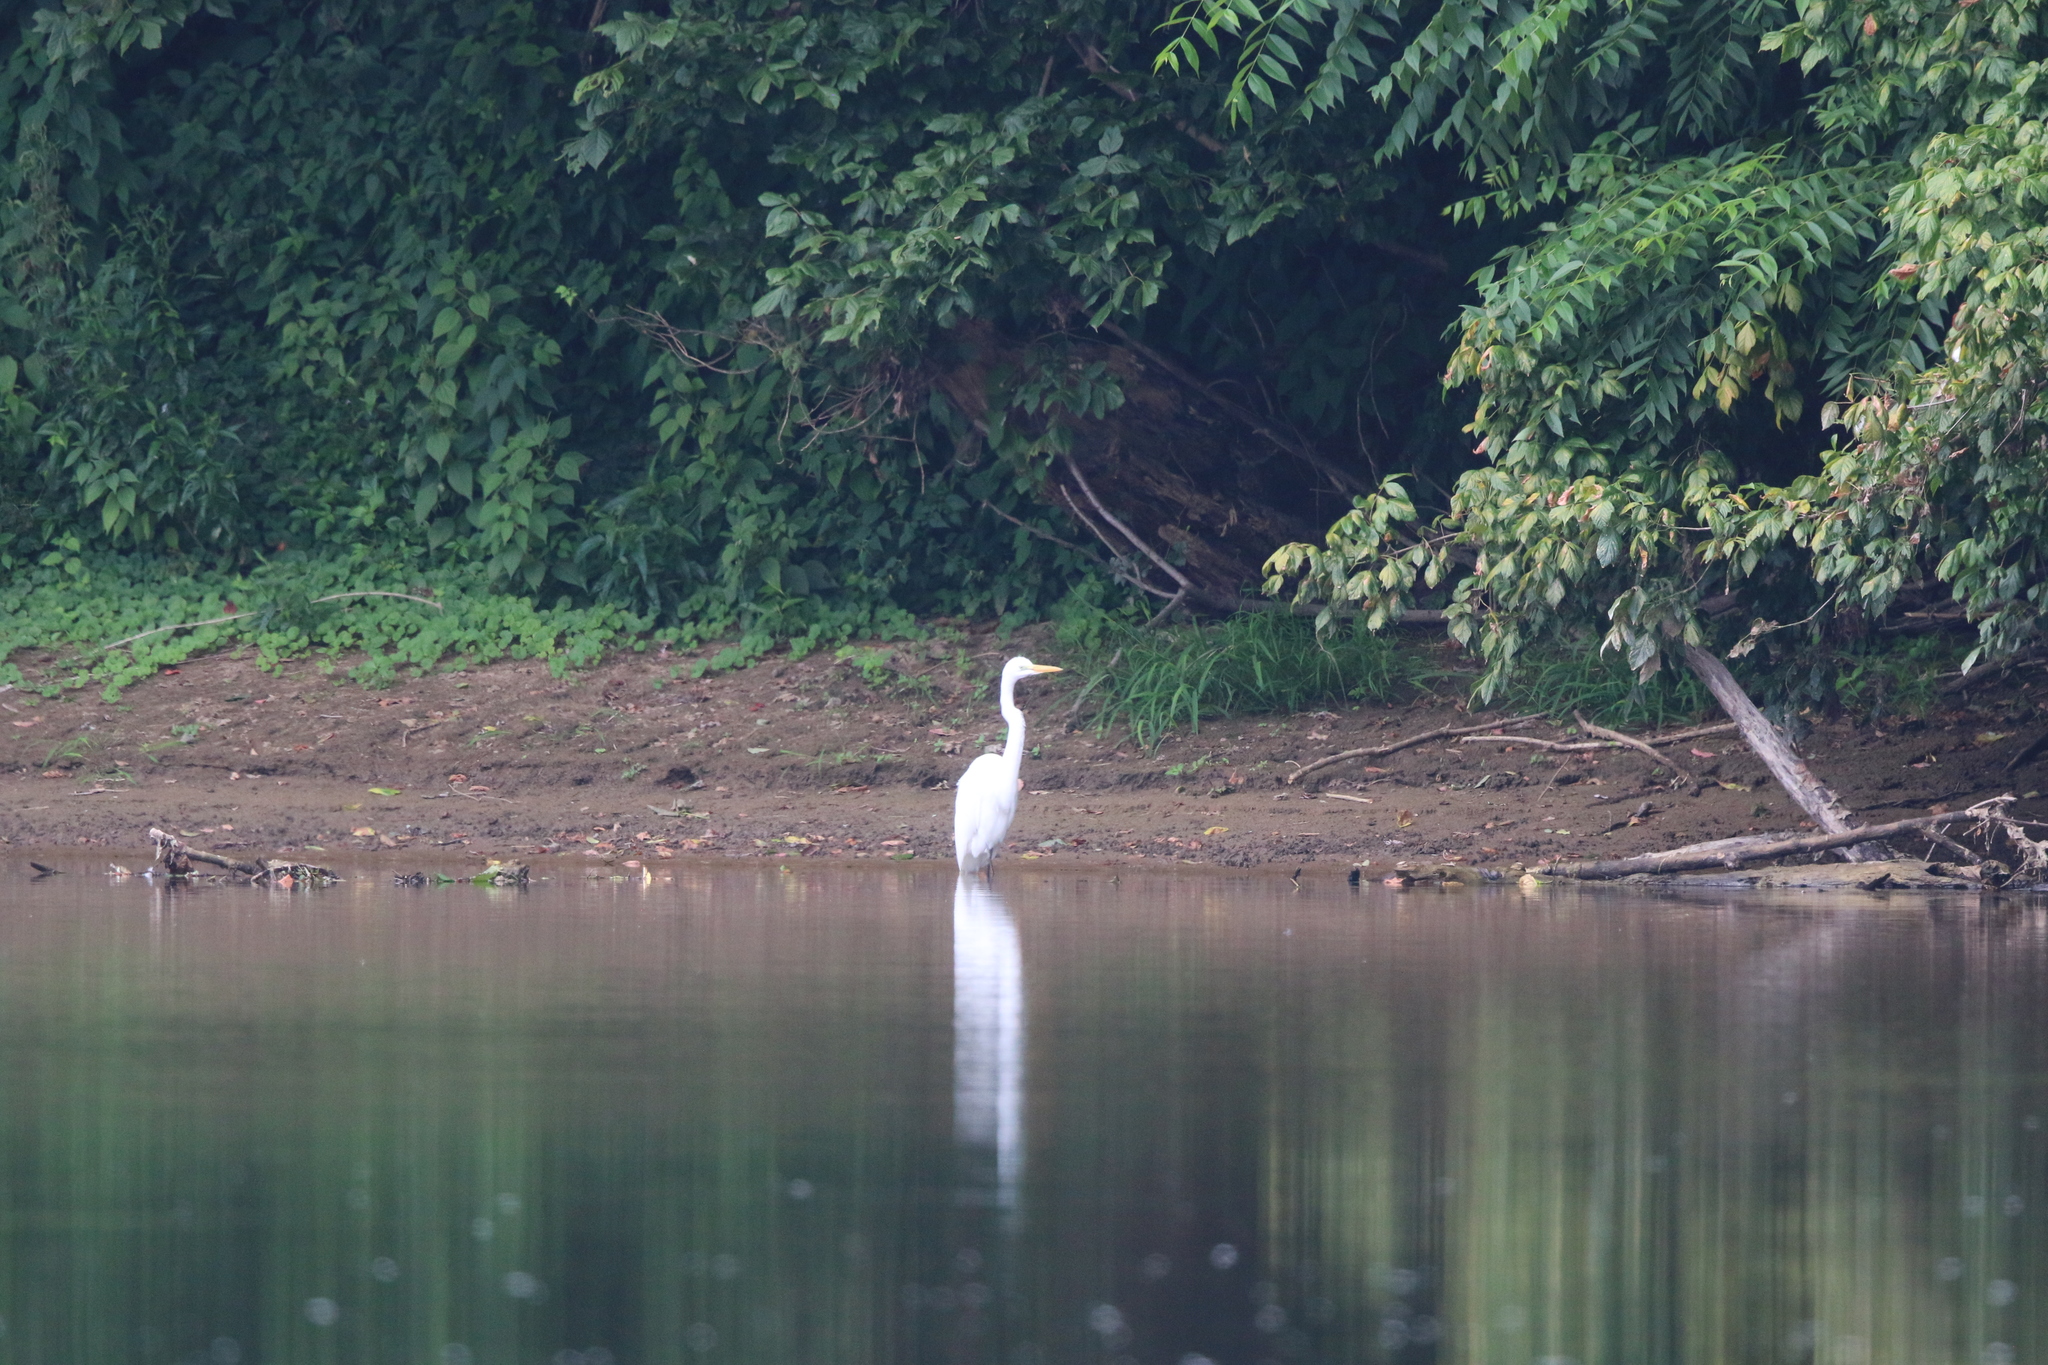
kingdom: Animalia
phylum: Chordata
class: Aves
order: Pelecaniformes
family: Ardeidae
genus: Ardea
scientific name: Ardea alba
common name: Great egret
